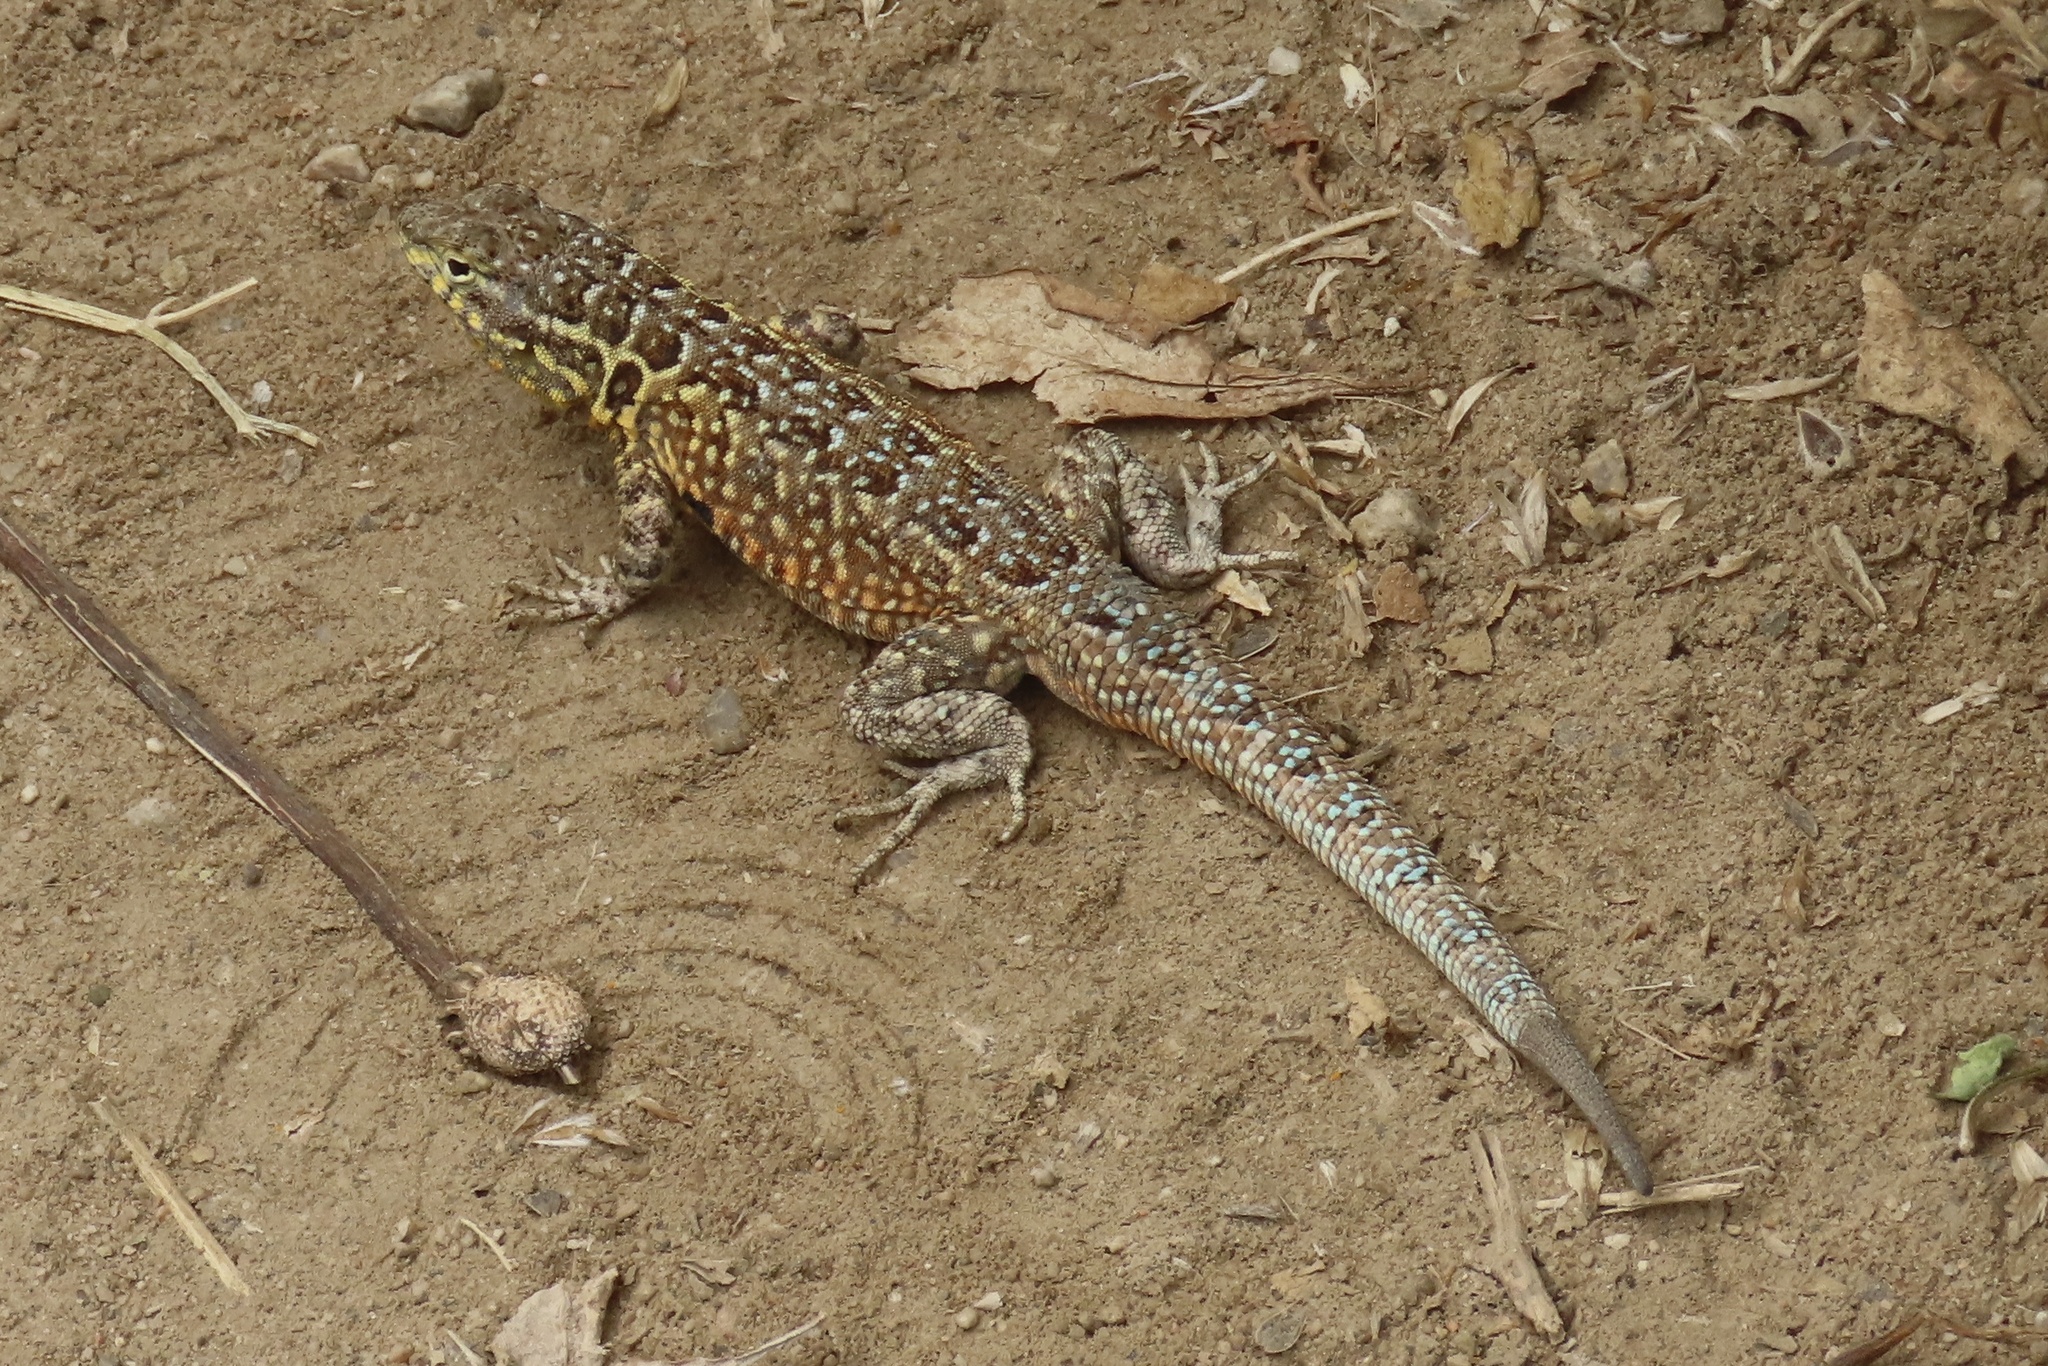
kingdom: Animalia
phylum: Chordata
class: Squamata
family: Phrynosomatidae
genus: Uta
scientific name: Uta stansburiana
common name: Side-blotched lizard
